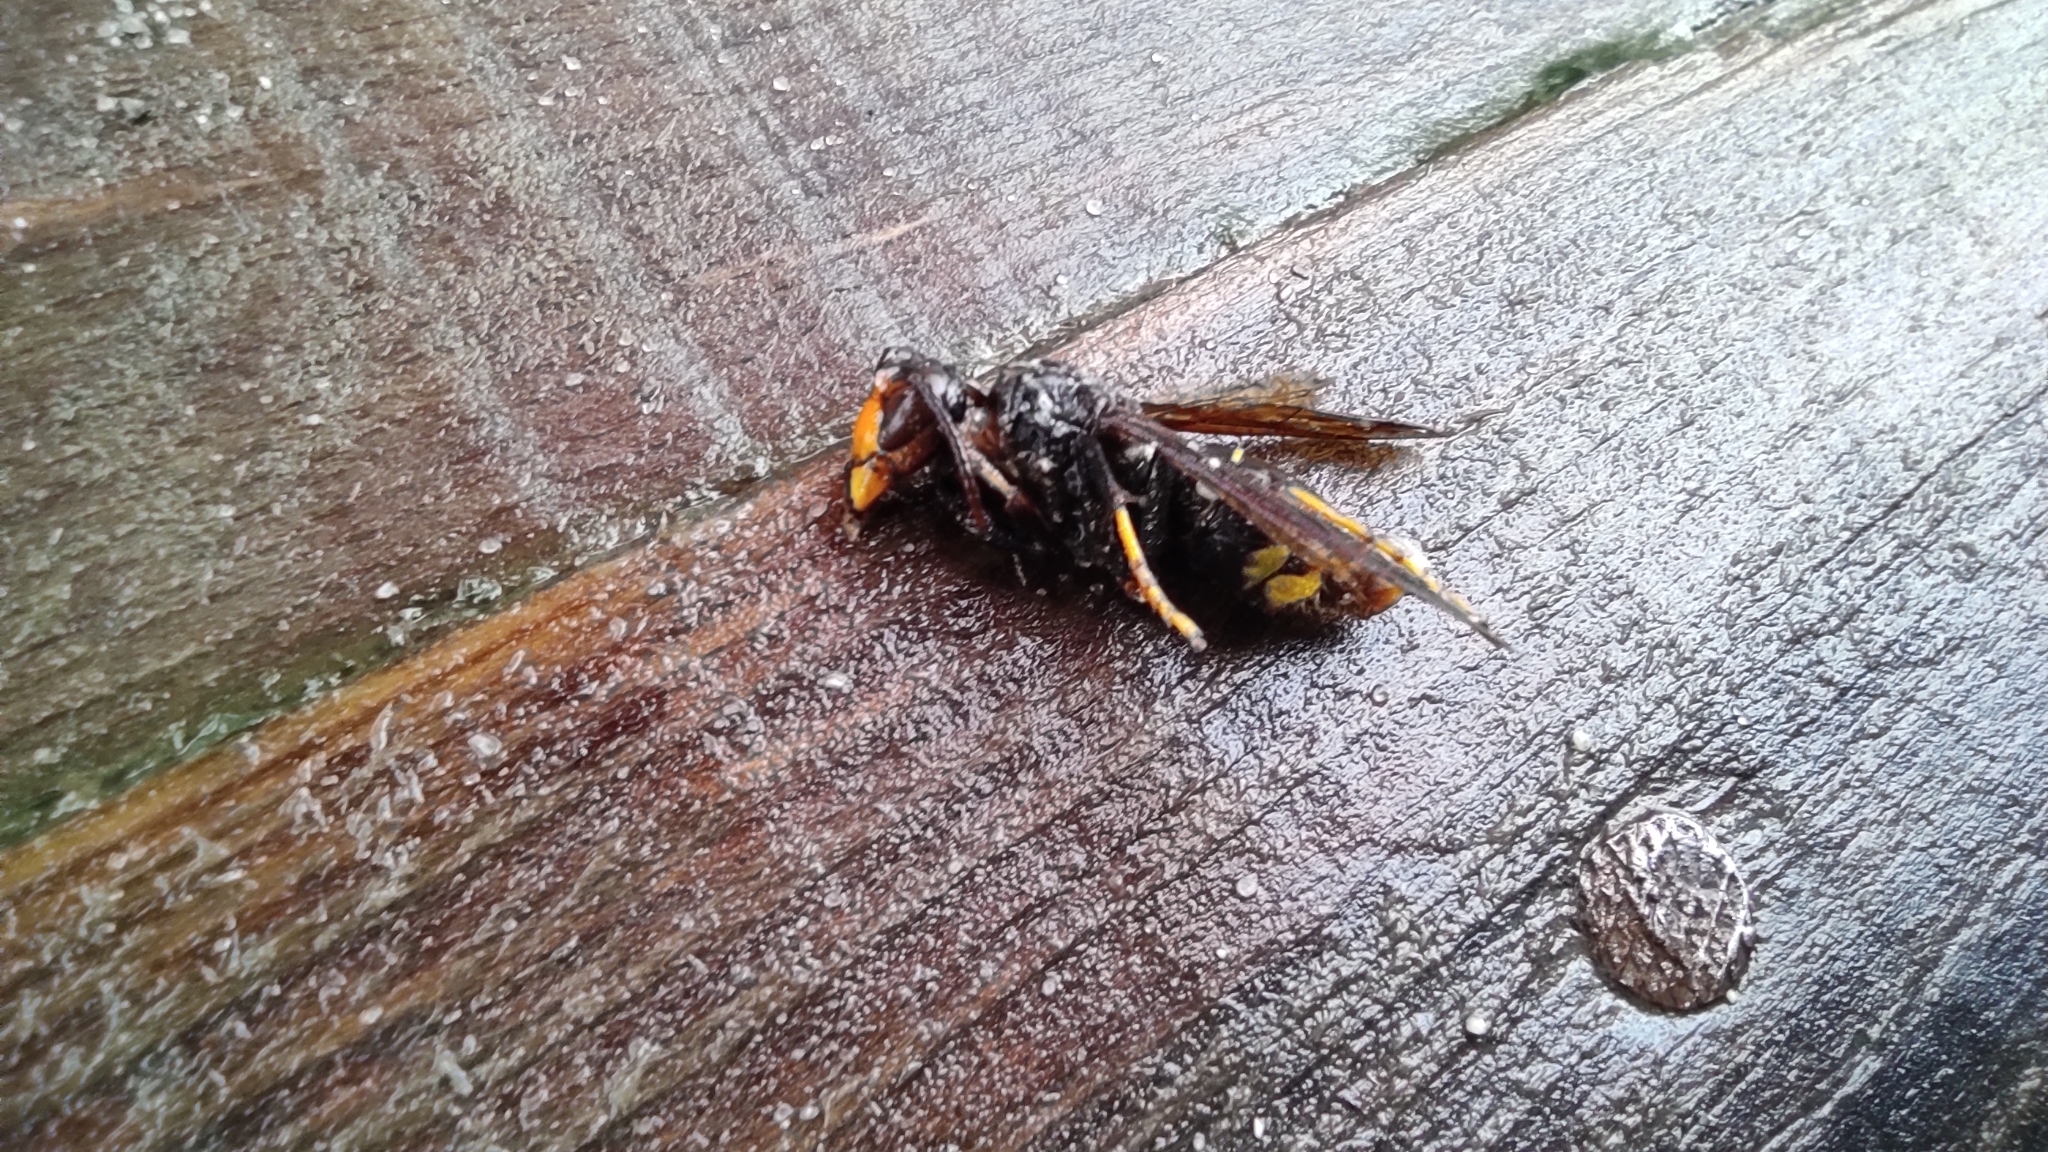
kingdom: Animalia
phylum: Arthropoda
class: Insecta
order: Hymenoptera
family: Vespidae
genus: Vespa
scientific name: Vespa velutina
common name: Asian hornet
